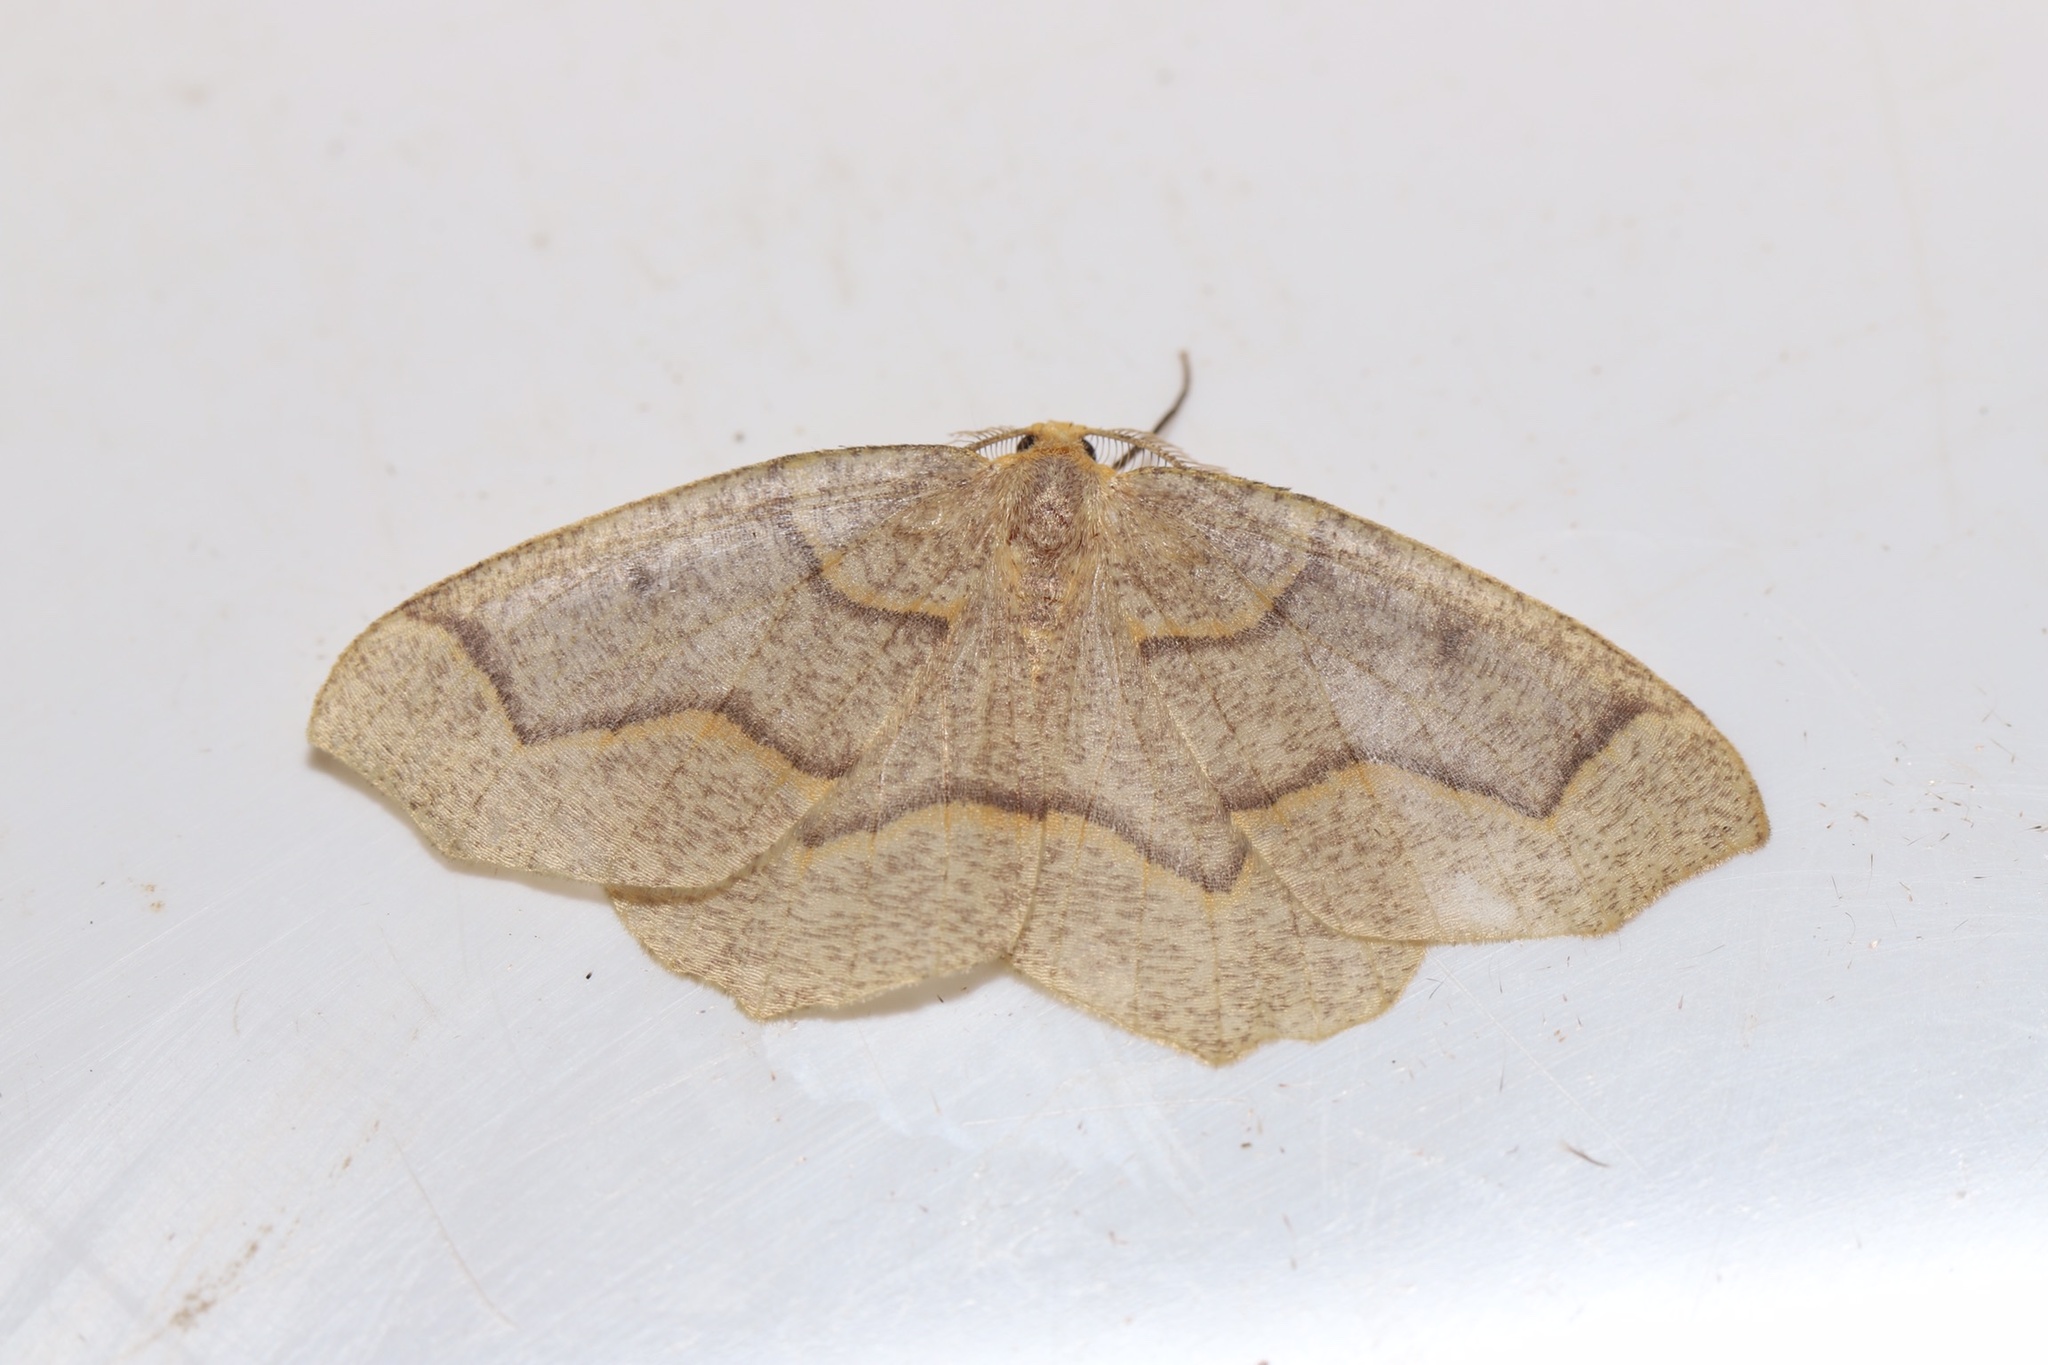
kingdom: Animalia
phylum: Arthropoda
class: Insecta
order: Lepidoptera
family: Geometridae
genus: Lambdina
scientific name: Lambdina fiscellaria
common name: Hemlock looper
